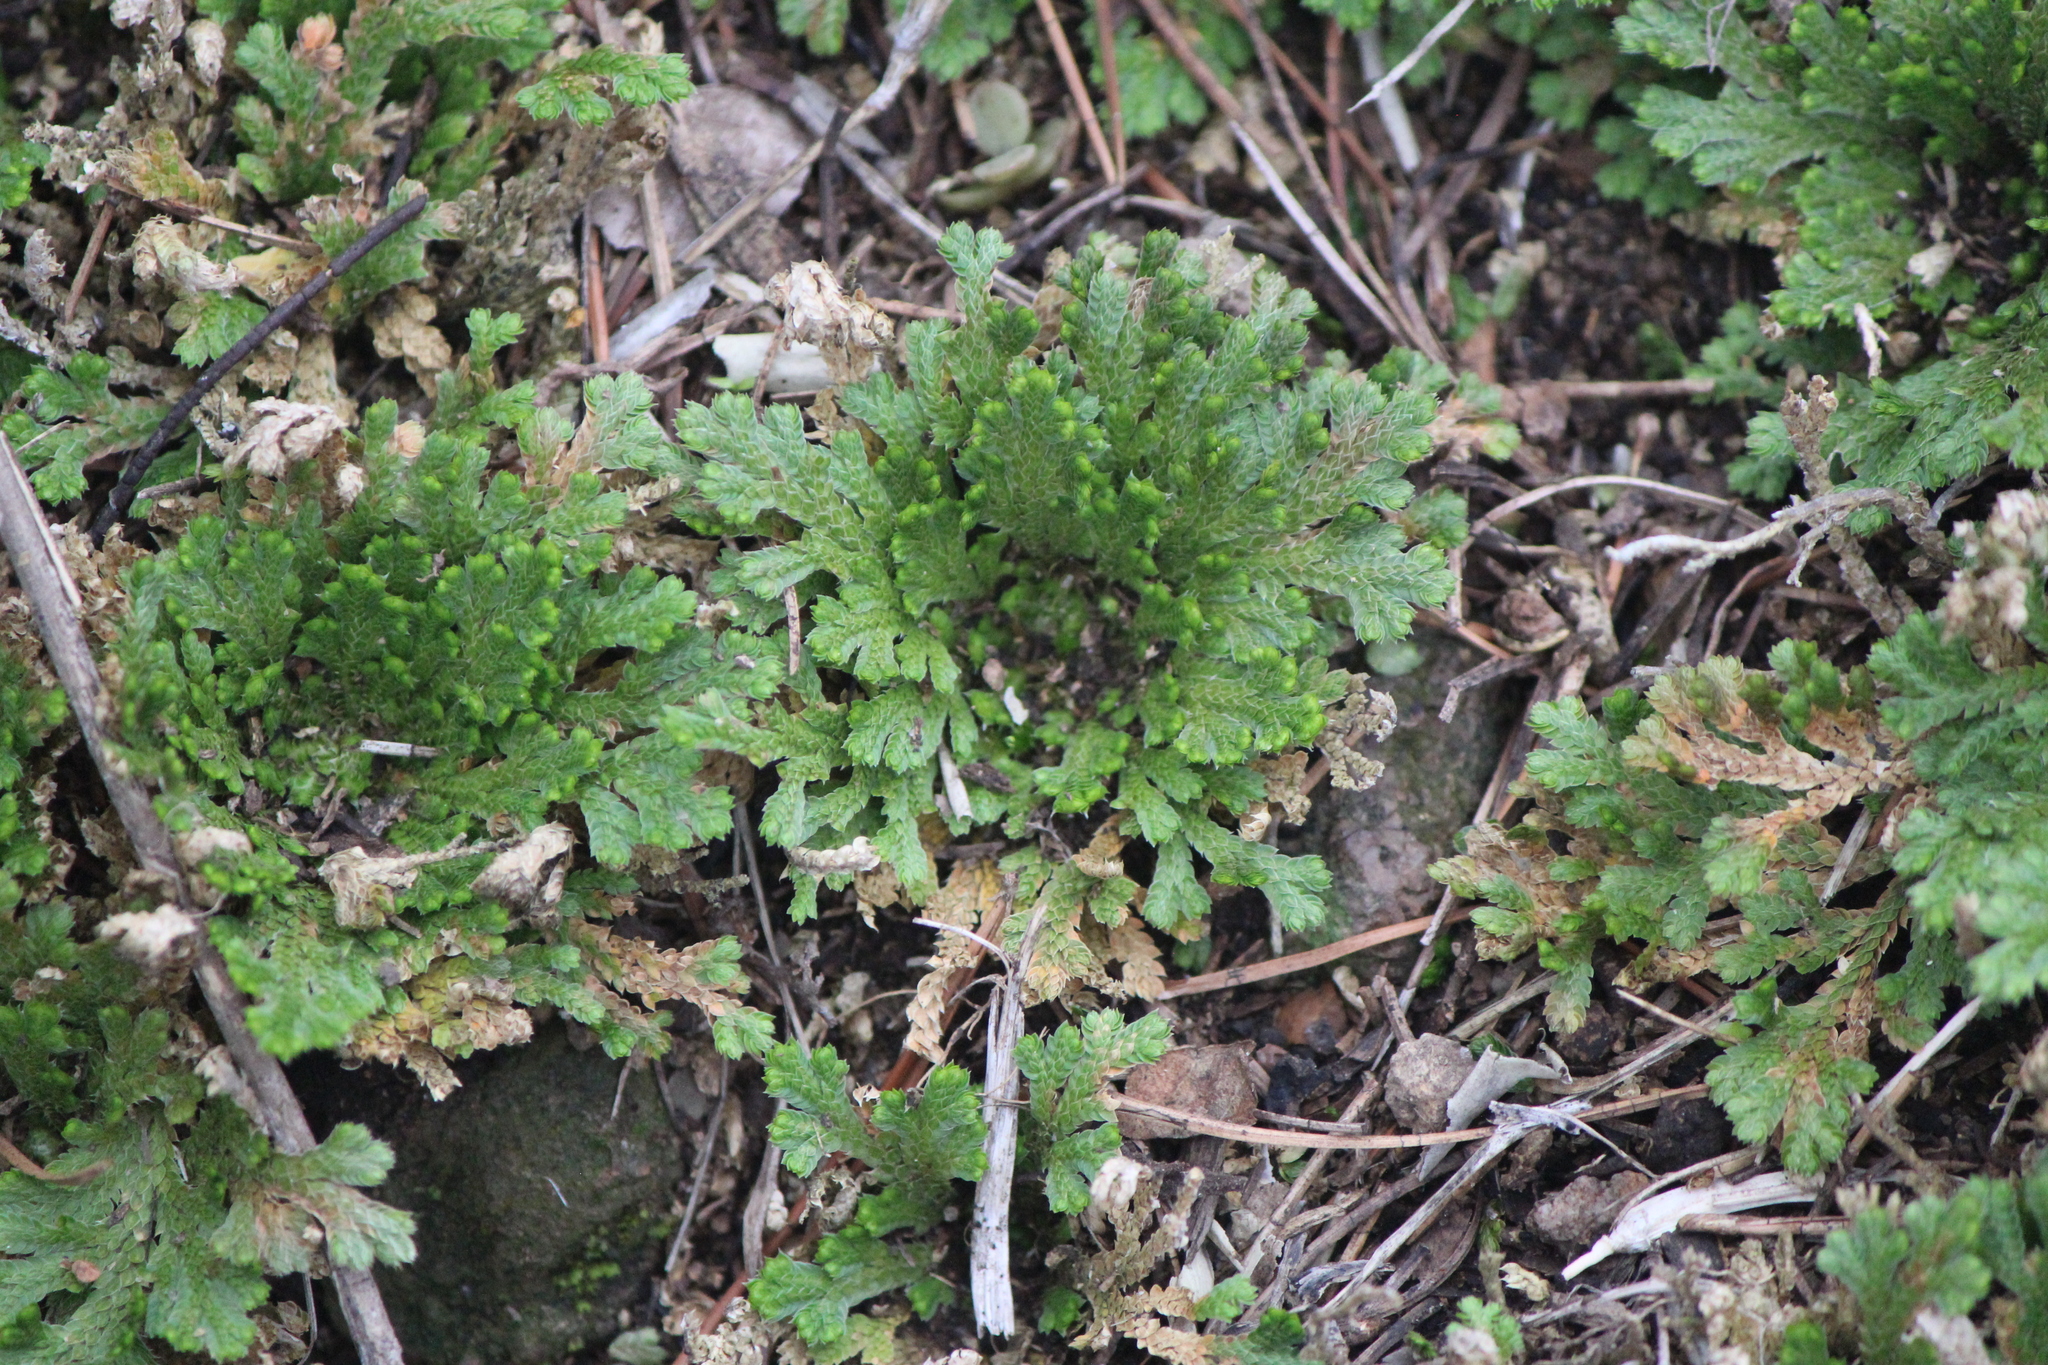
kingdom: Plantae
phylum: Tracheophyta
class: Lycopodiopsida
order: Selaginellales
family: Selaginellaceae
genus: Selaginella
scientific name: Selaginella lepidophylla
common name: Rose-of-jericho
